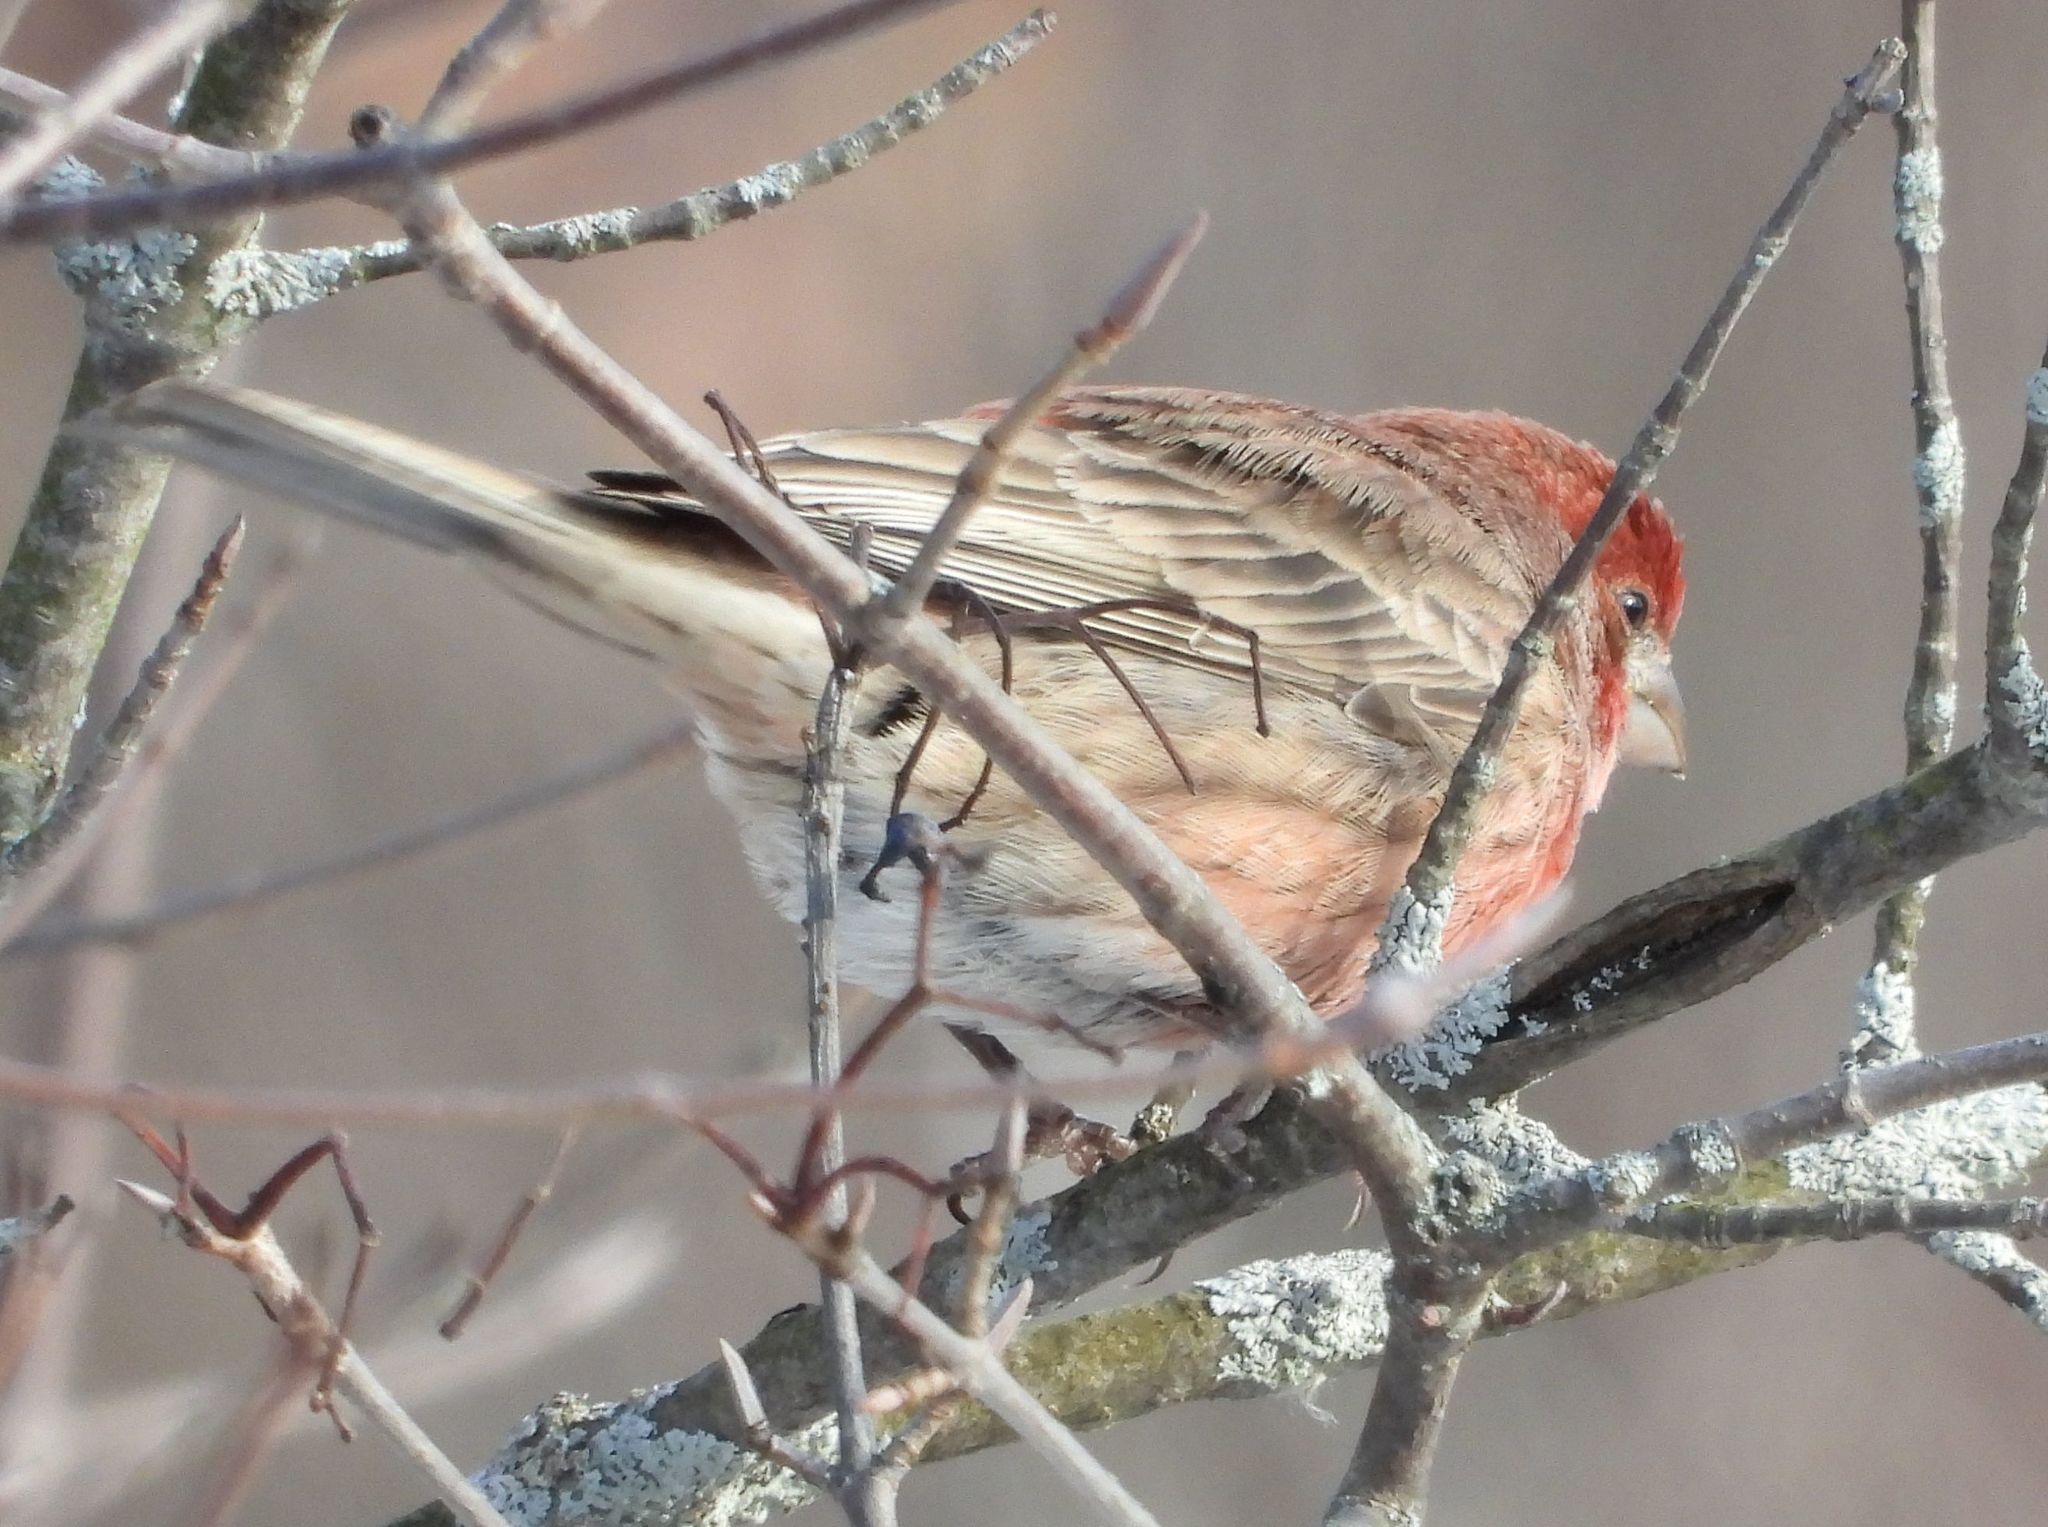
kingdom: Animalia
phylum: Chordata
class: Aves
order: Passeriformes
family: Fringillidae
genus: Haemorhous
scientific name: Haemorhous mexicanus
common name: House finch
